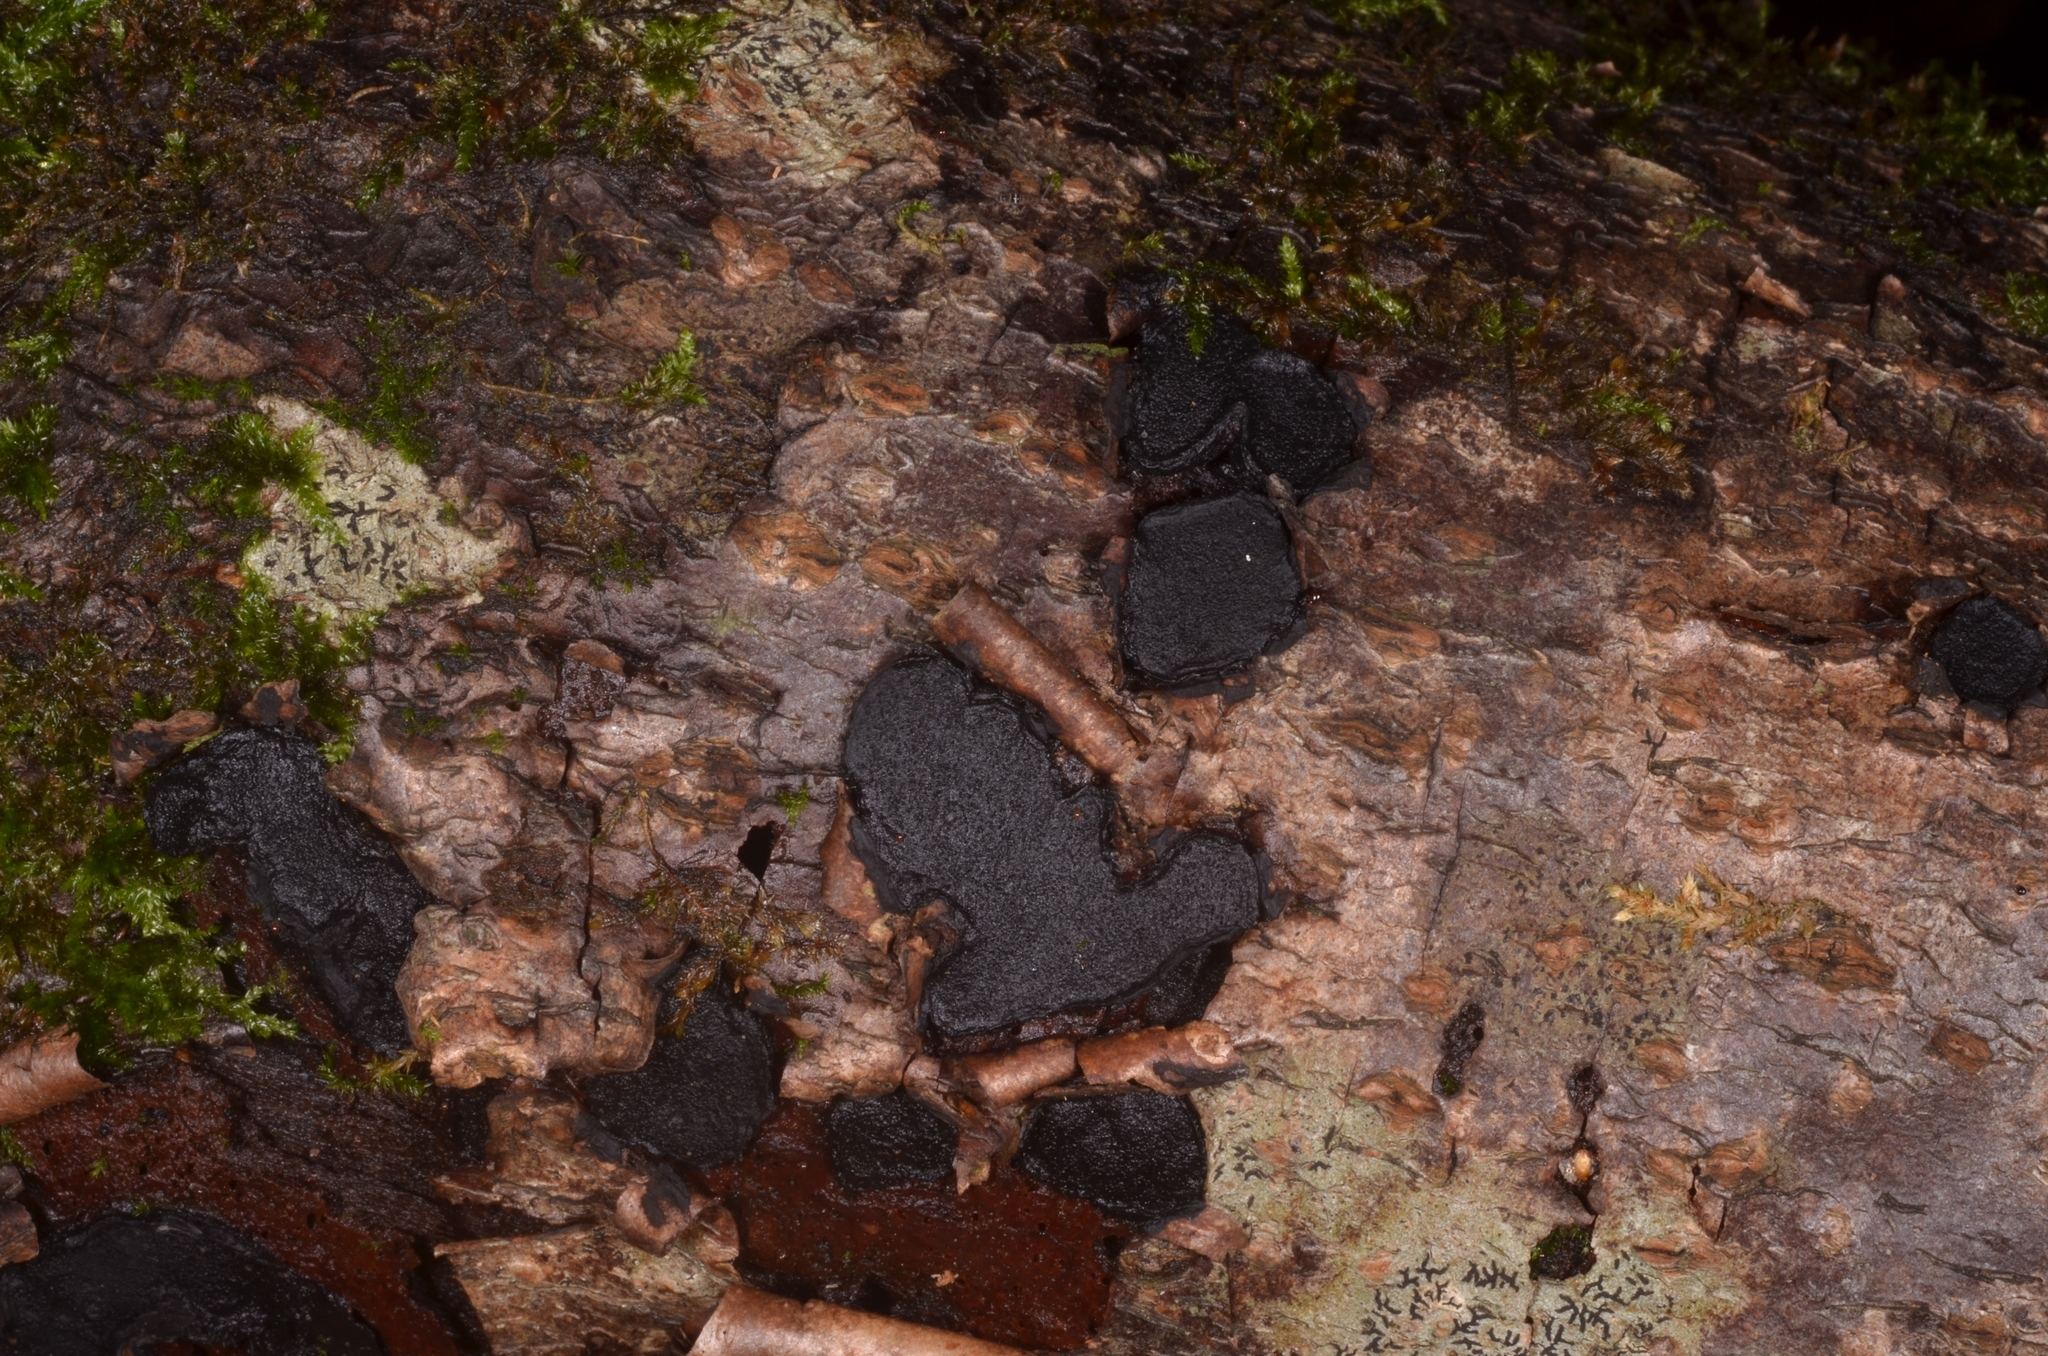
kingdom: Fungi
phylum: Ascomycota
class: Sordariomycetes
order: Xylariales
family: Graphostromataceae
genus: Biscogniauxia
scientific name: Biscogniauxia granmoi
